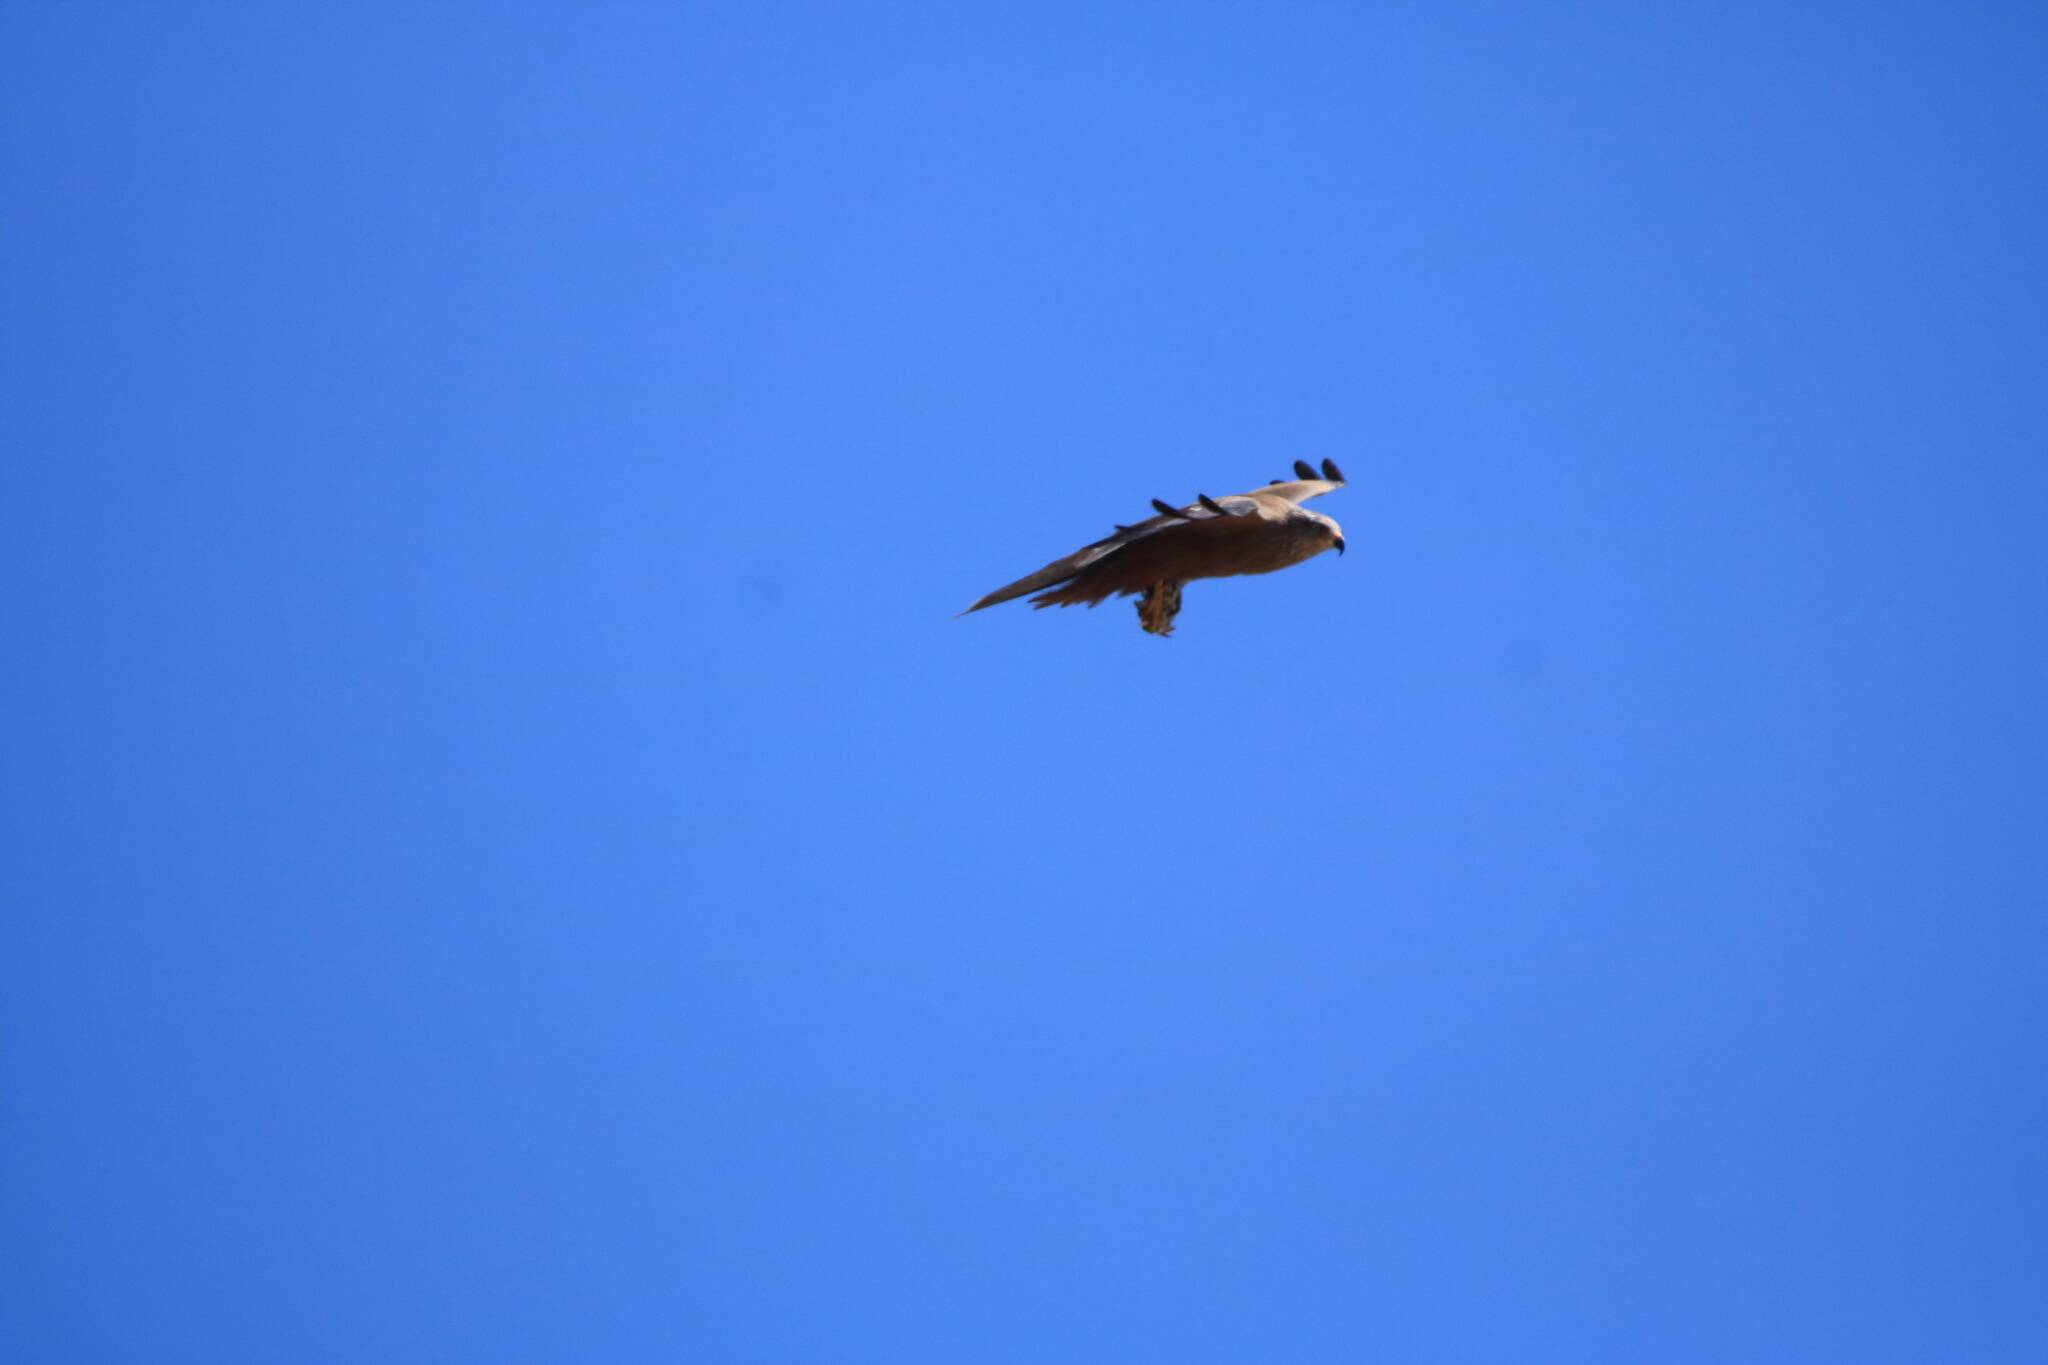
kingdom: Animalia
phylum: Chordata
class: Aves
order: Accipitriformes
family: Accipitridae
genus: Milvus
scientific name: Milvus migrans
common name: Black kite
